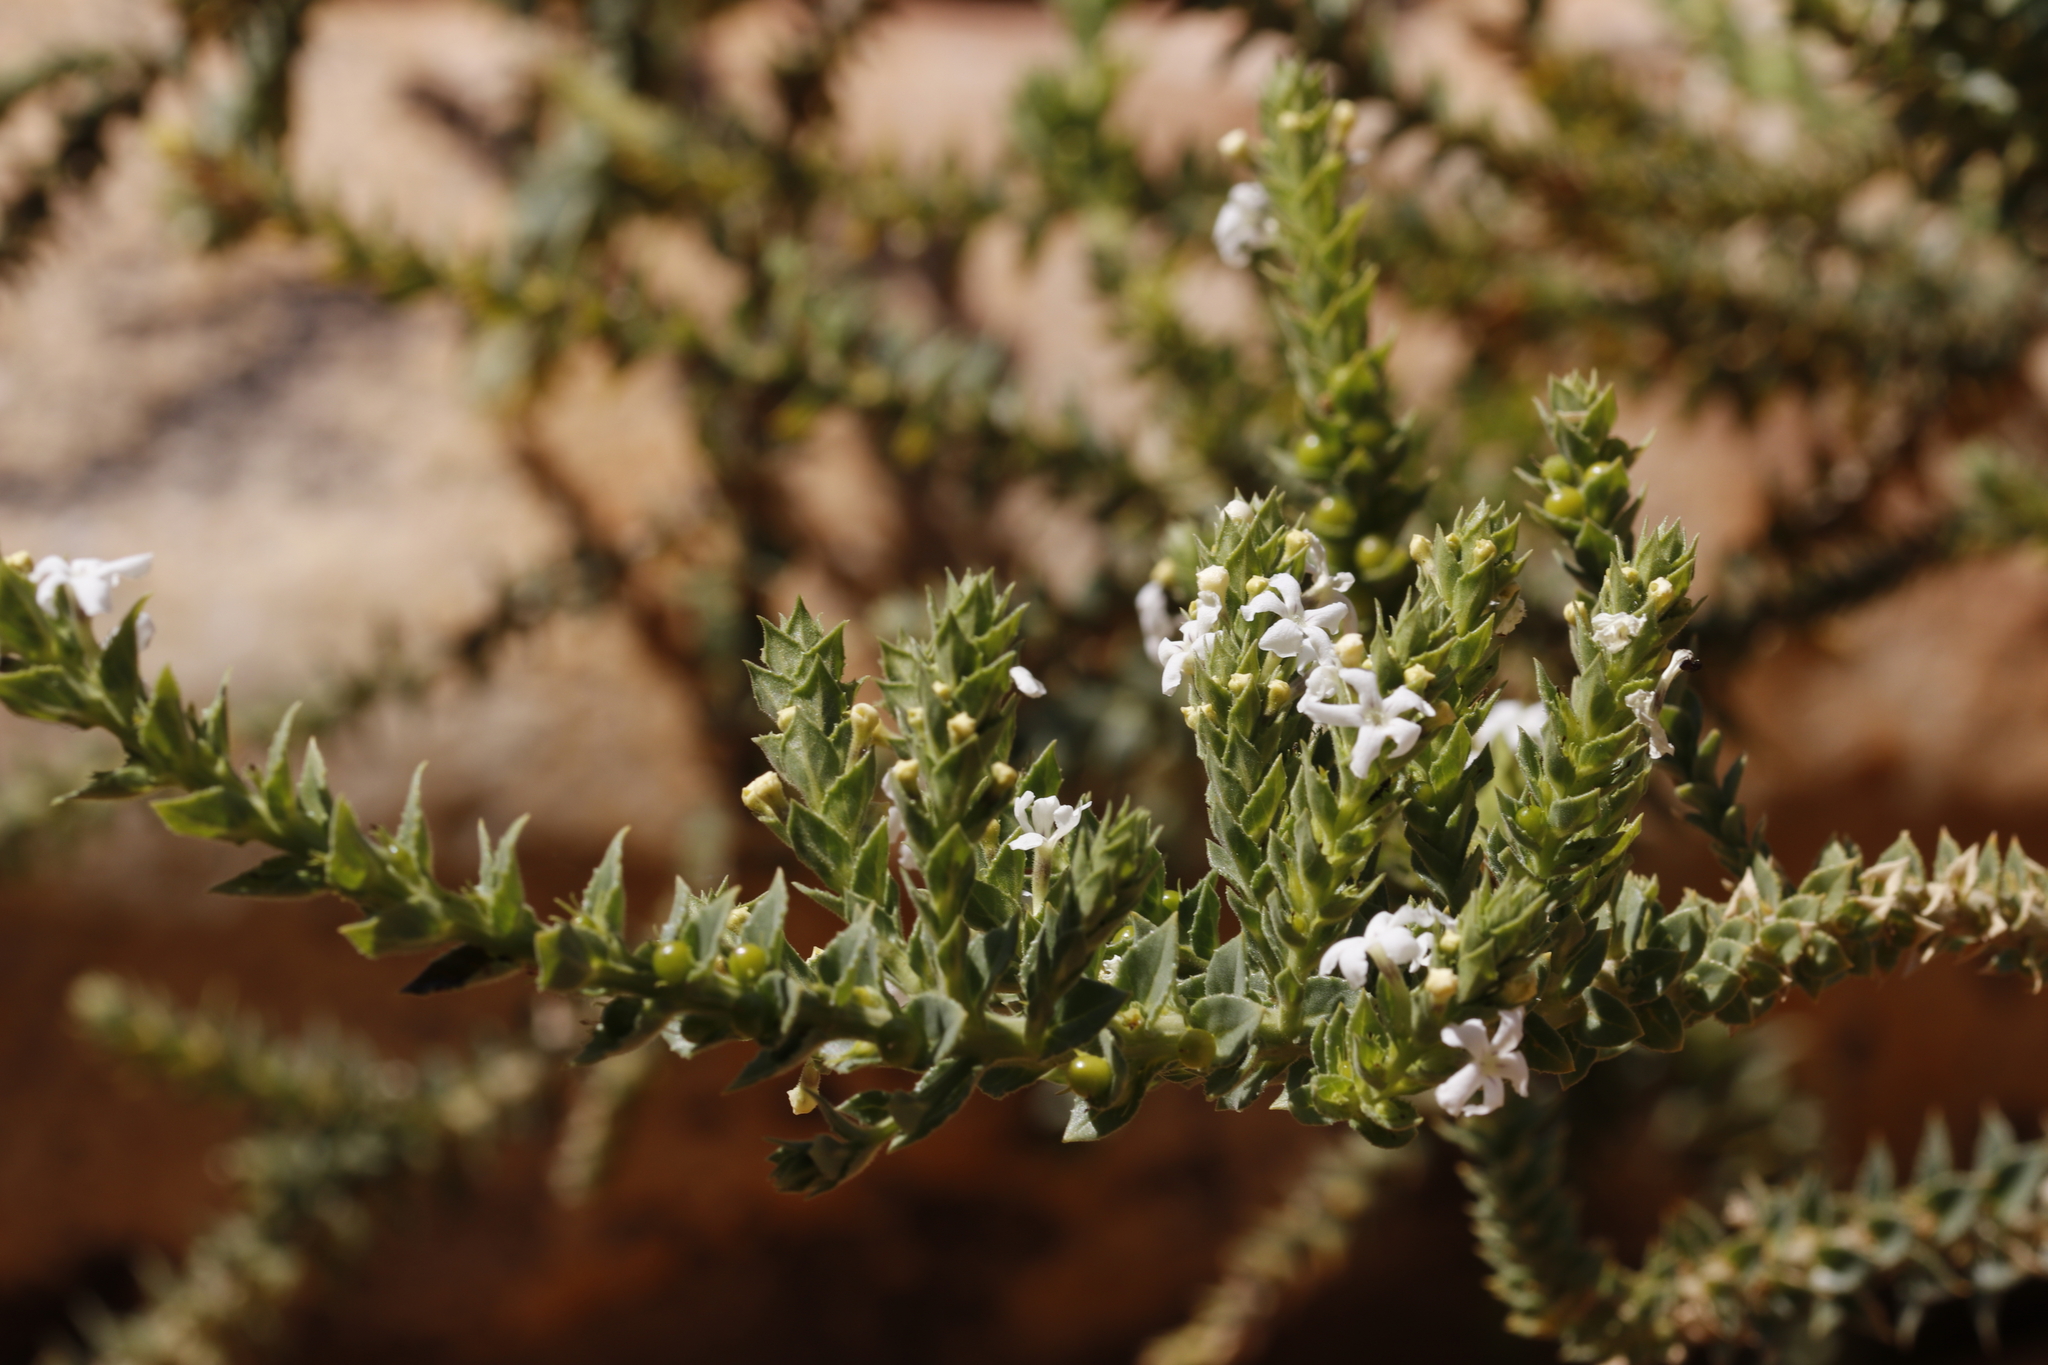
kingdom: Plantae
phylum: Tracheophyta
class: Magnoliopsida
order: Lamiales
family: Scrophulariaceae
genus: Oftia
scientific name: Oftia africana
